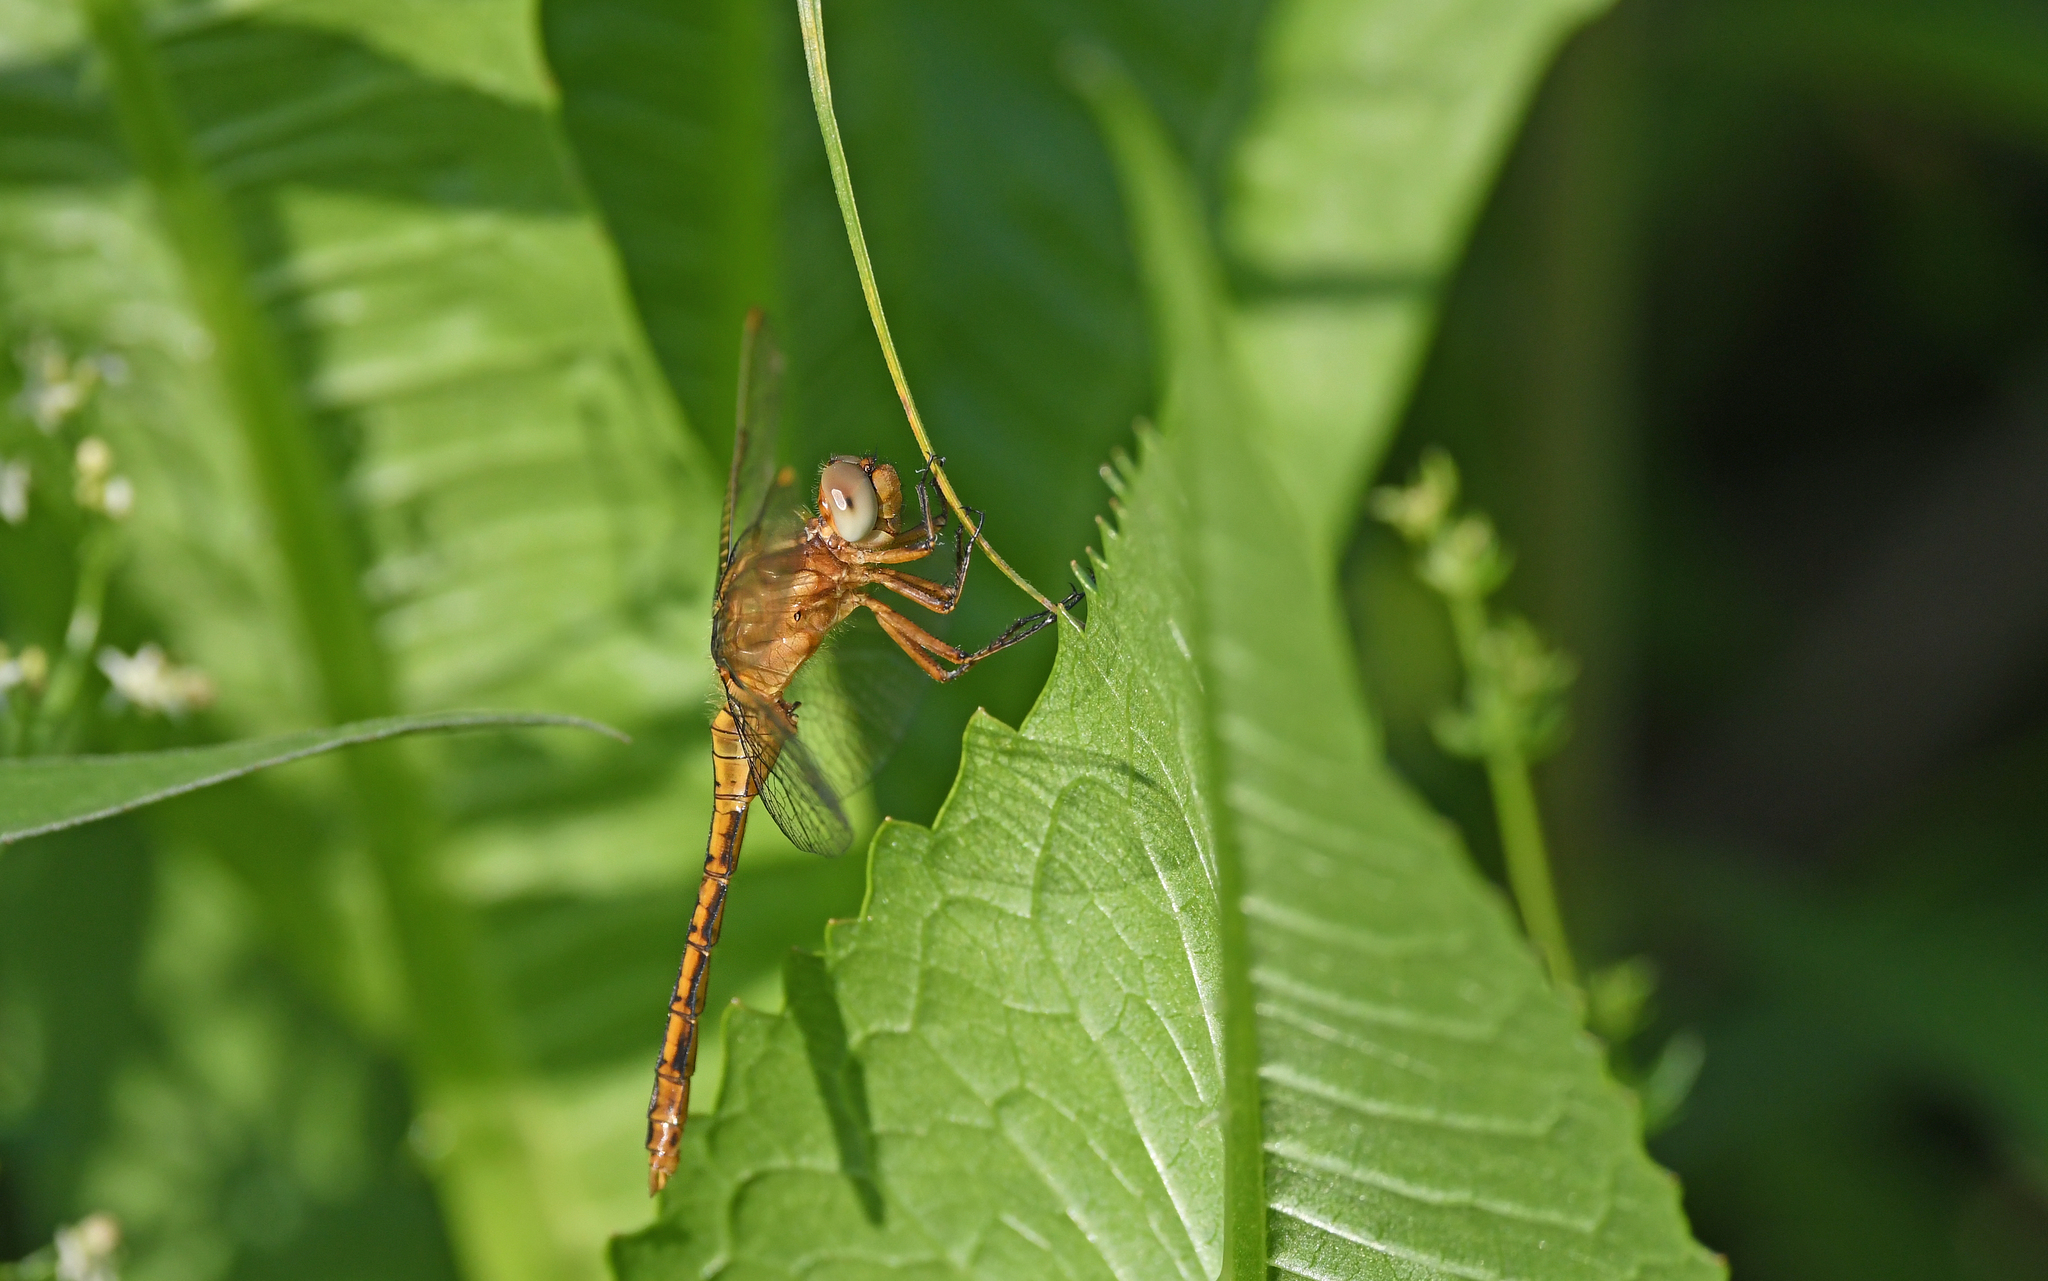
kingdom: Animalia
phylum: Arthropoda
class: Insecta
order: Odonata
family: Libellulidae
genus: Orthetrum
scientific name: Orthetrum coerulescens
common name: Keeled skimmer
